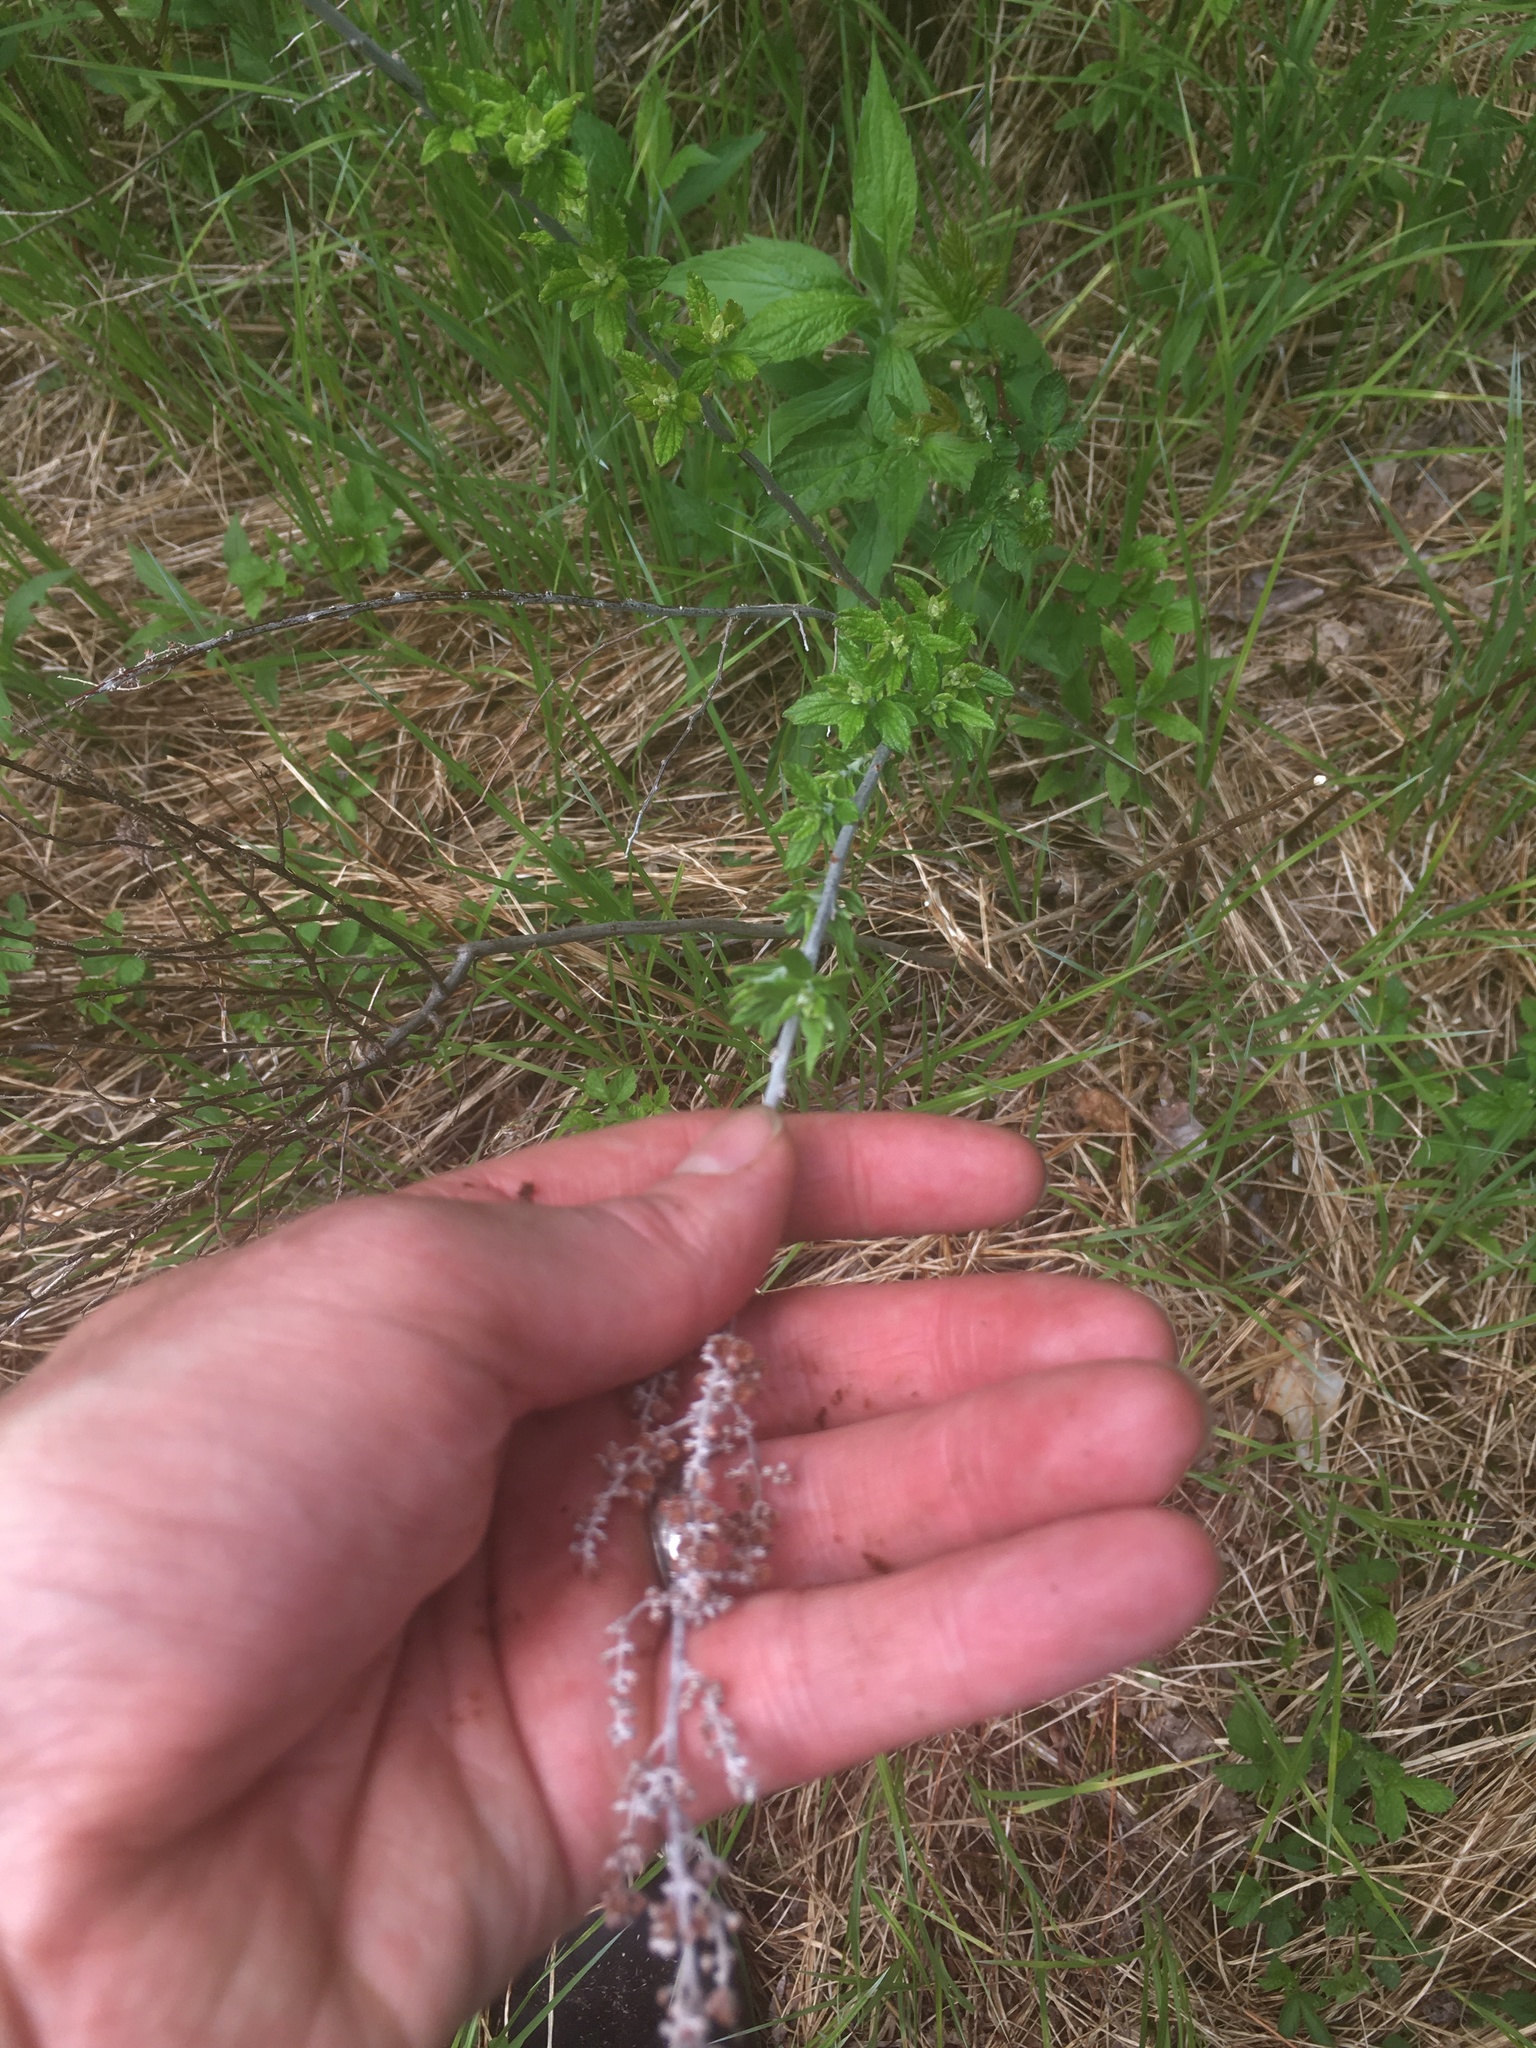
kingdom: Plantae
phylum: Tracheophyta
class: Magnoliopsida
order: Rosales
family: Rosaceae
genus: Spiraea
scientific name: Spiraea tomentosa
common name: Hardhack
